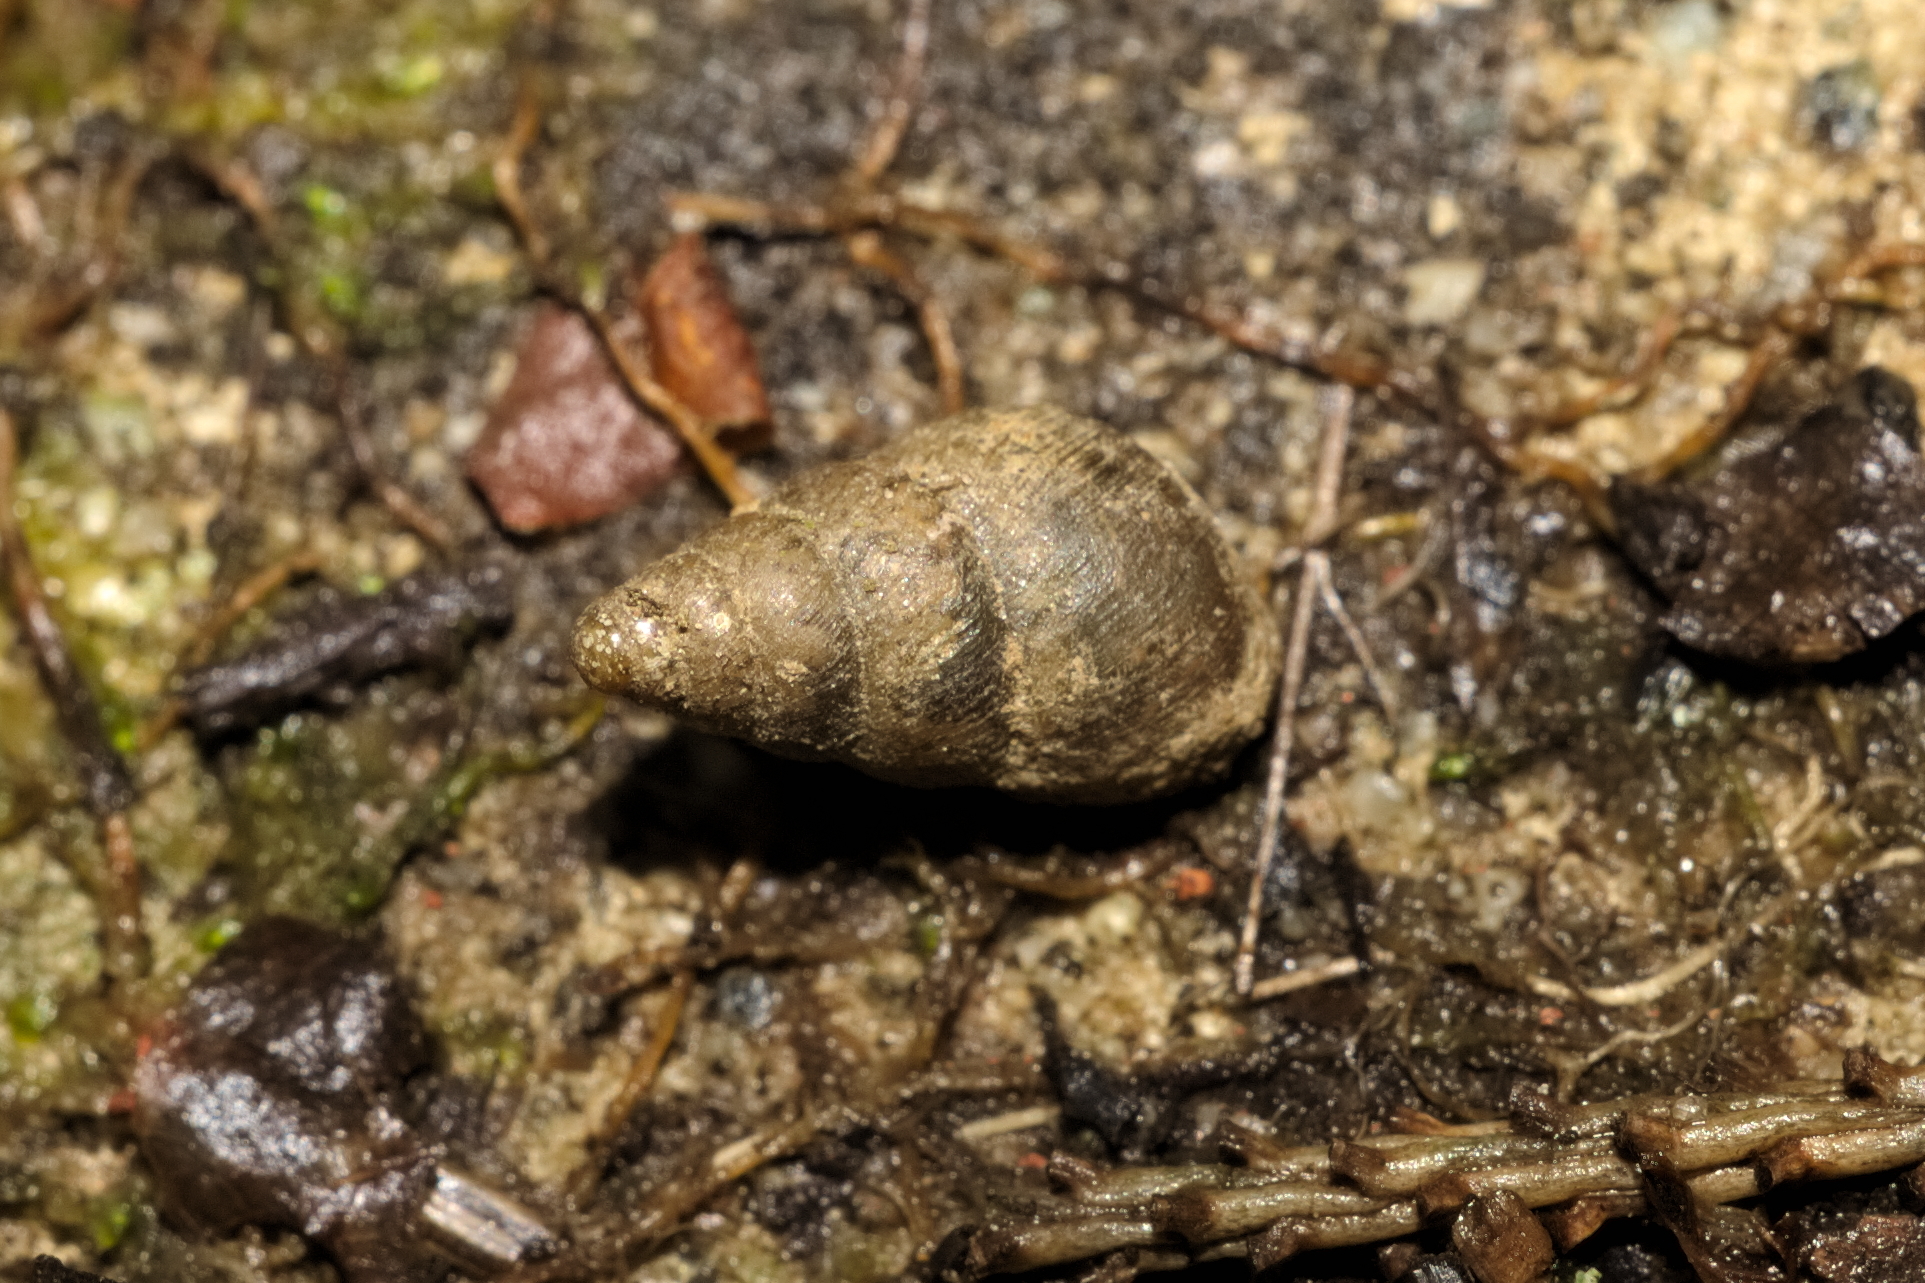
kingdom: Animalia
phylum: Mollusca
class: Gastropoda
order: Stylommatophora
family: Enidae
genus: Ena
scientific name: Ena montana
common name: Mountain bulin
